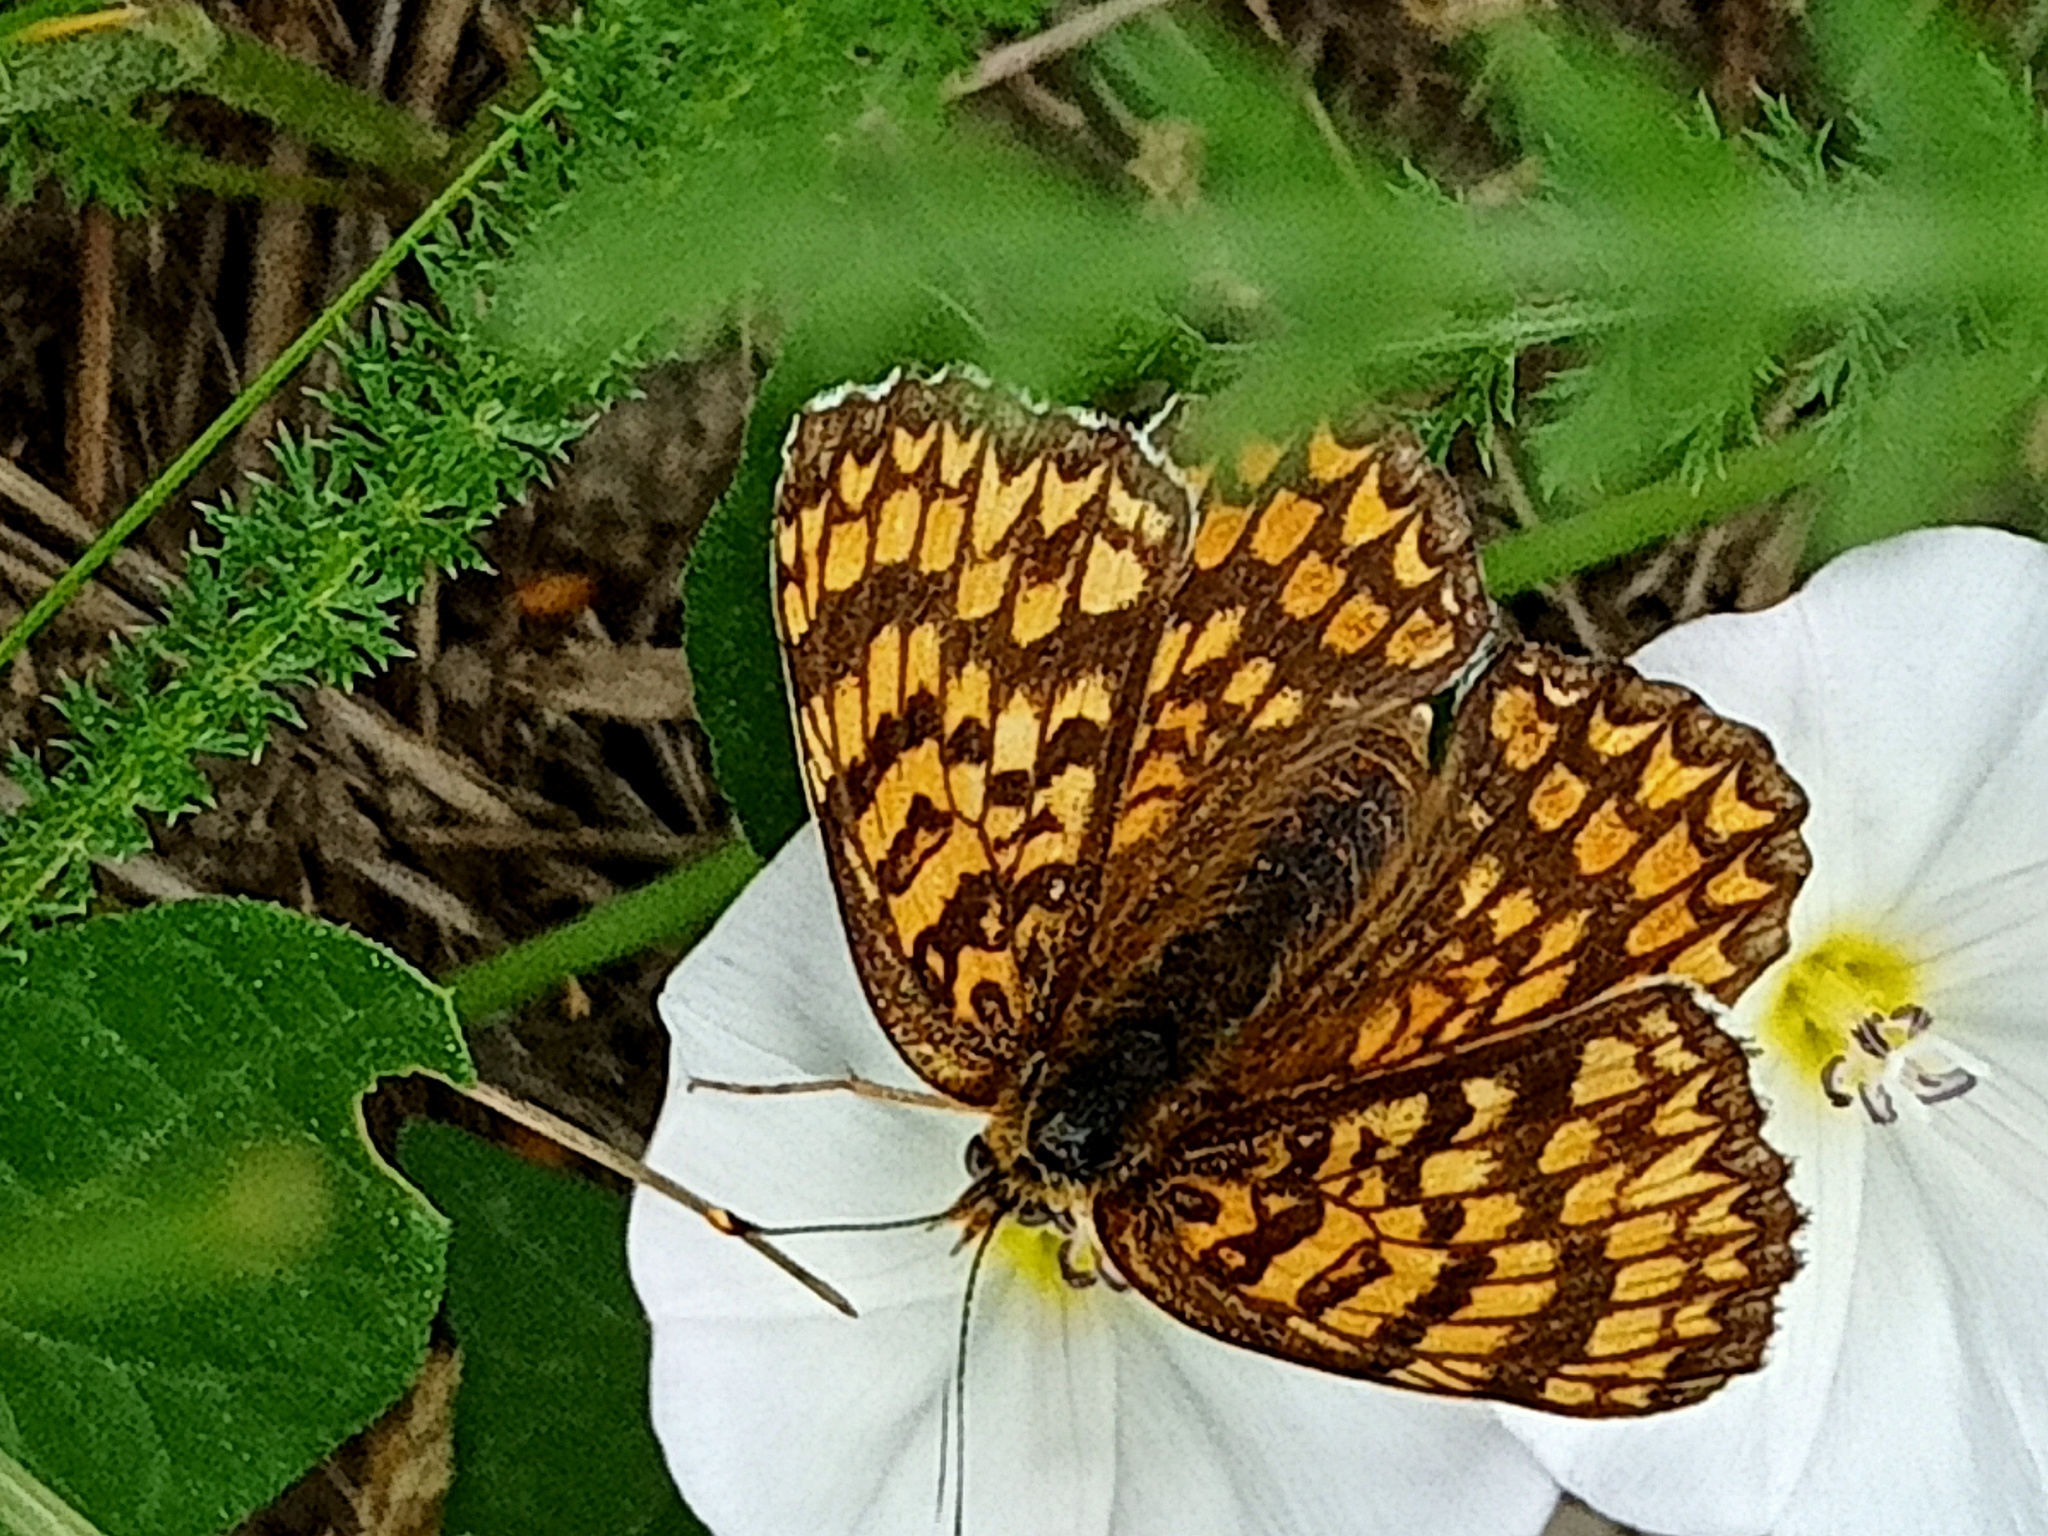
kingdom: Animalia
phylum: Arthropoda
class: Insecta
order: Lepidoptera
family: Nymphalidae
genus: Melitaea
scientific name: Melitaea phoebe
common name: Knapweed fritillary
